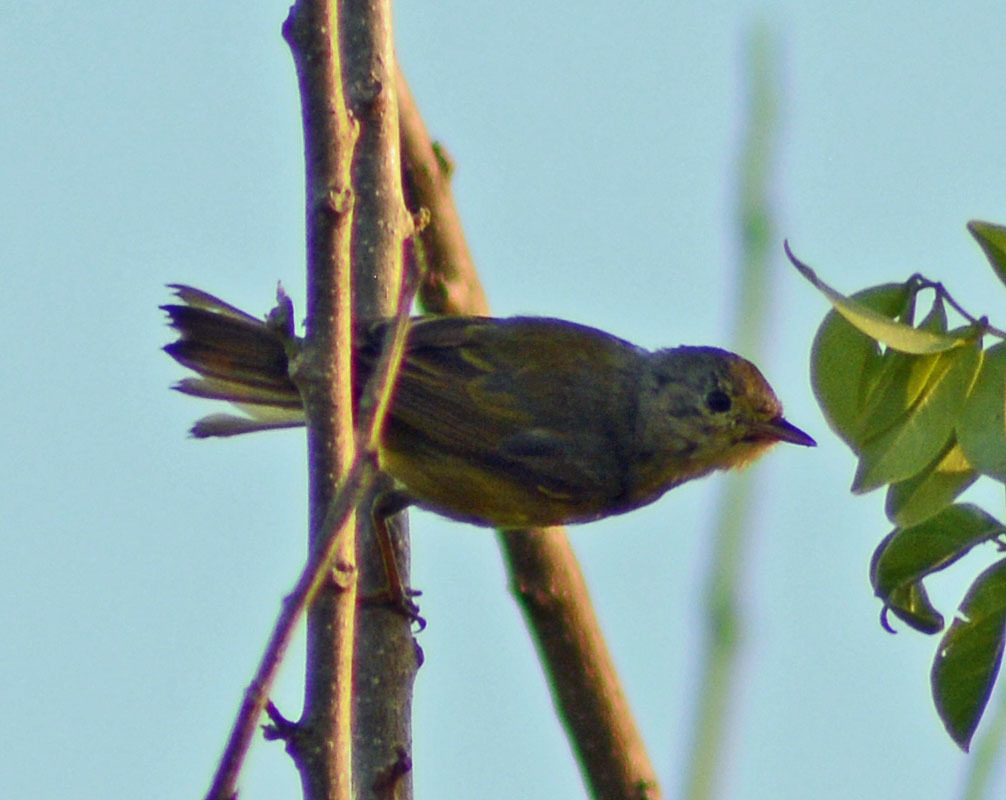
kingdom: Animalia
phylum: Chordata
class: Aves
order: Passeriformes
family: Parulidae
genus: Setophaga
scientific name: Setophaga petechia
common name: Yellow warbler
